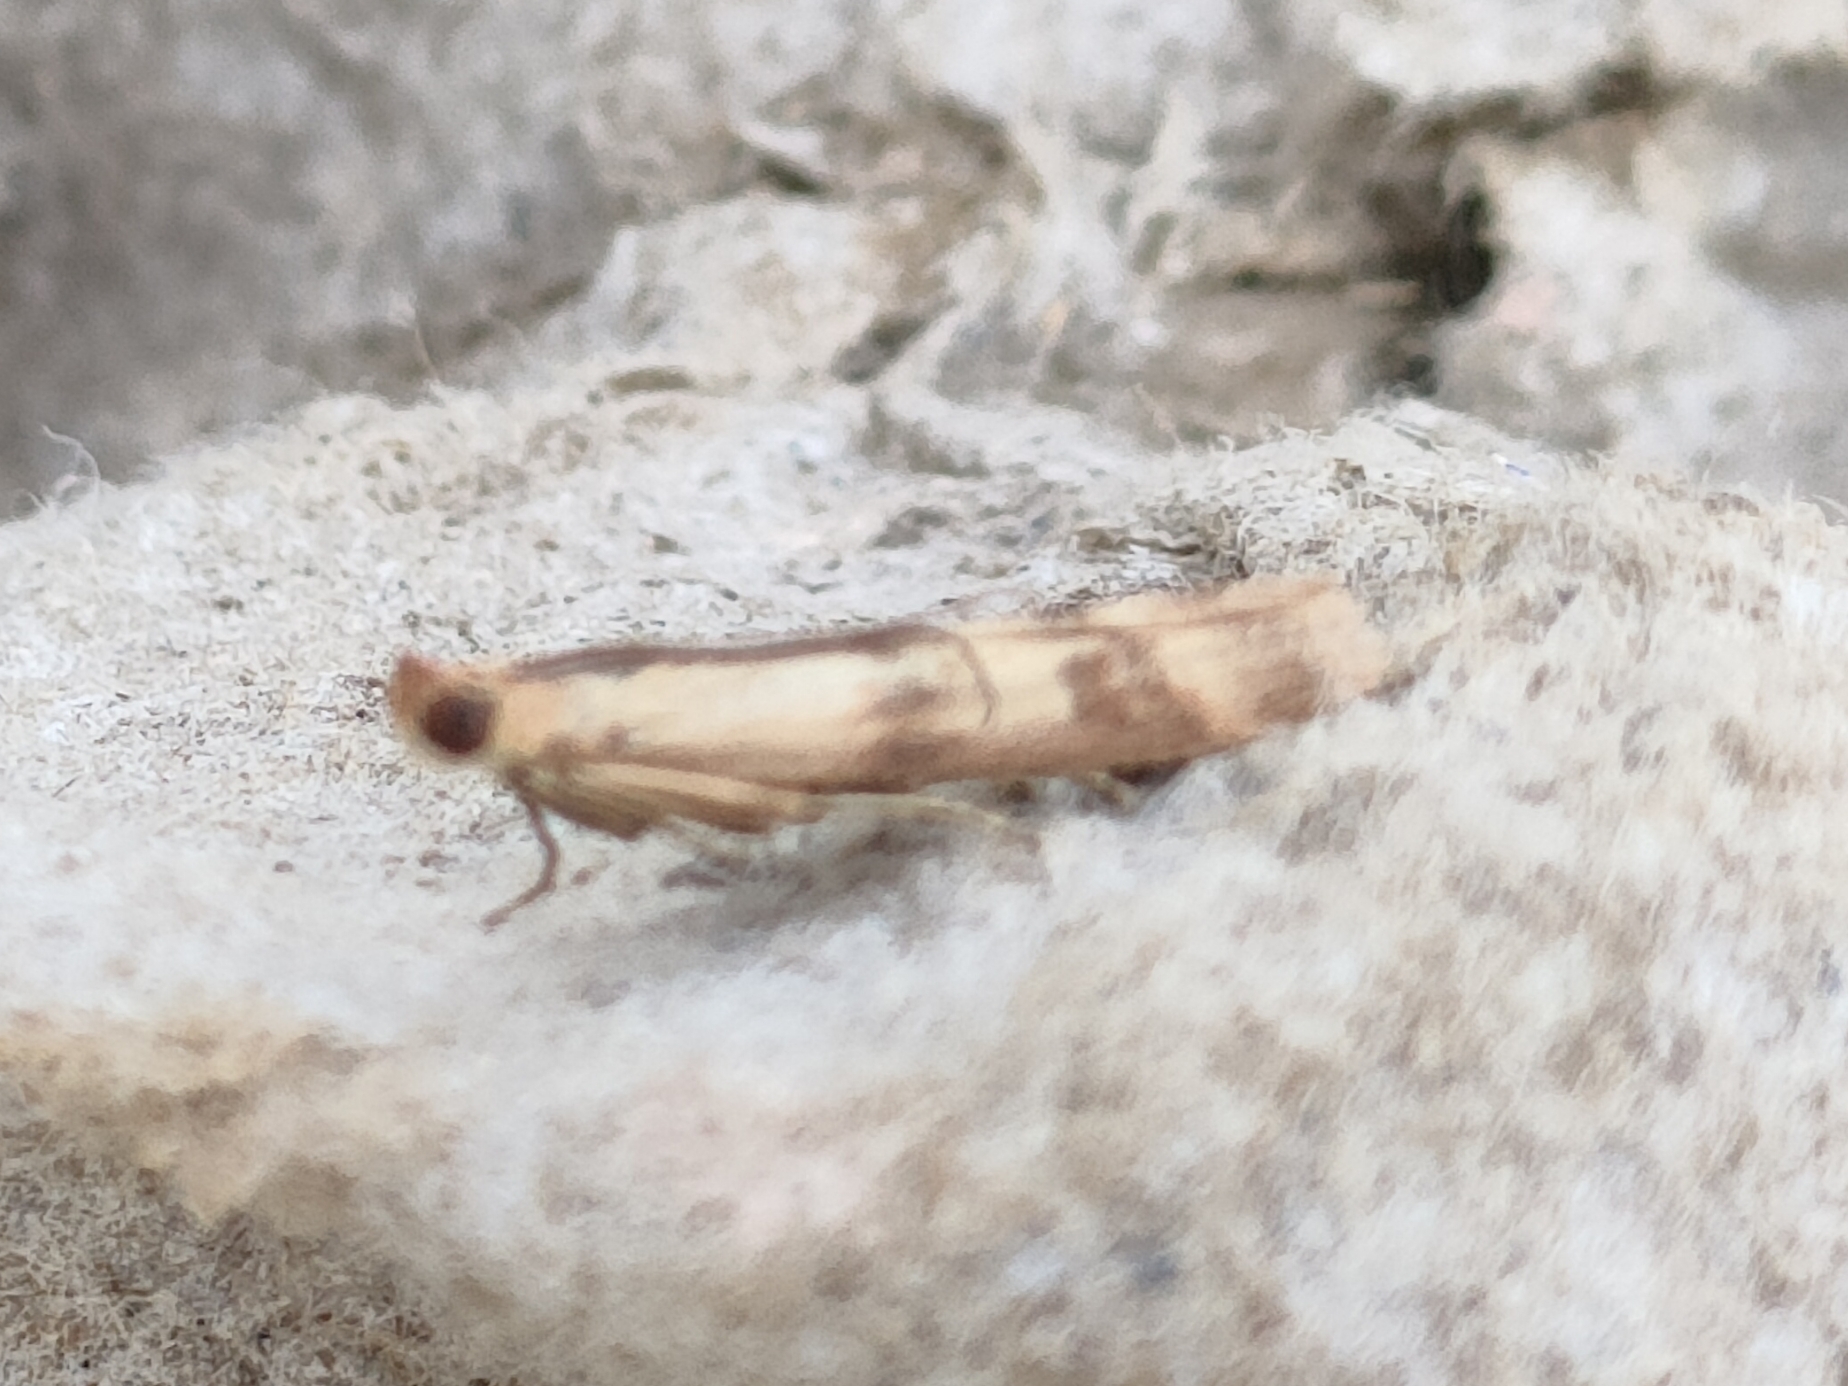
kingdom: Animalia
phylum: Arthropoda
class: Insecta
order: Lepidoptera
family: Pyralidae
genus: Homoeosoma
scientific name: Homoeosoma sinuella
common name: Twin-barred knot-horn
